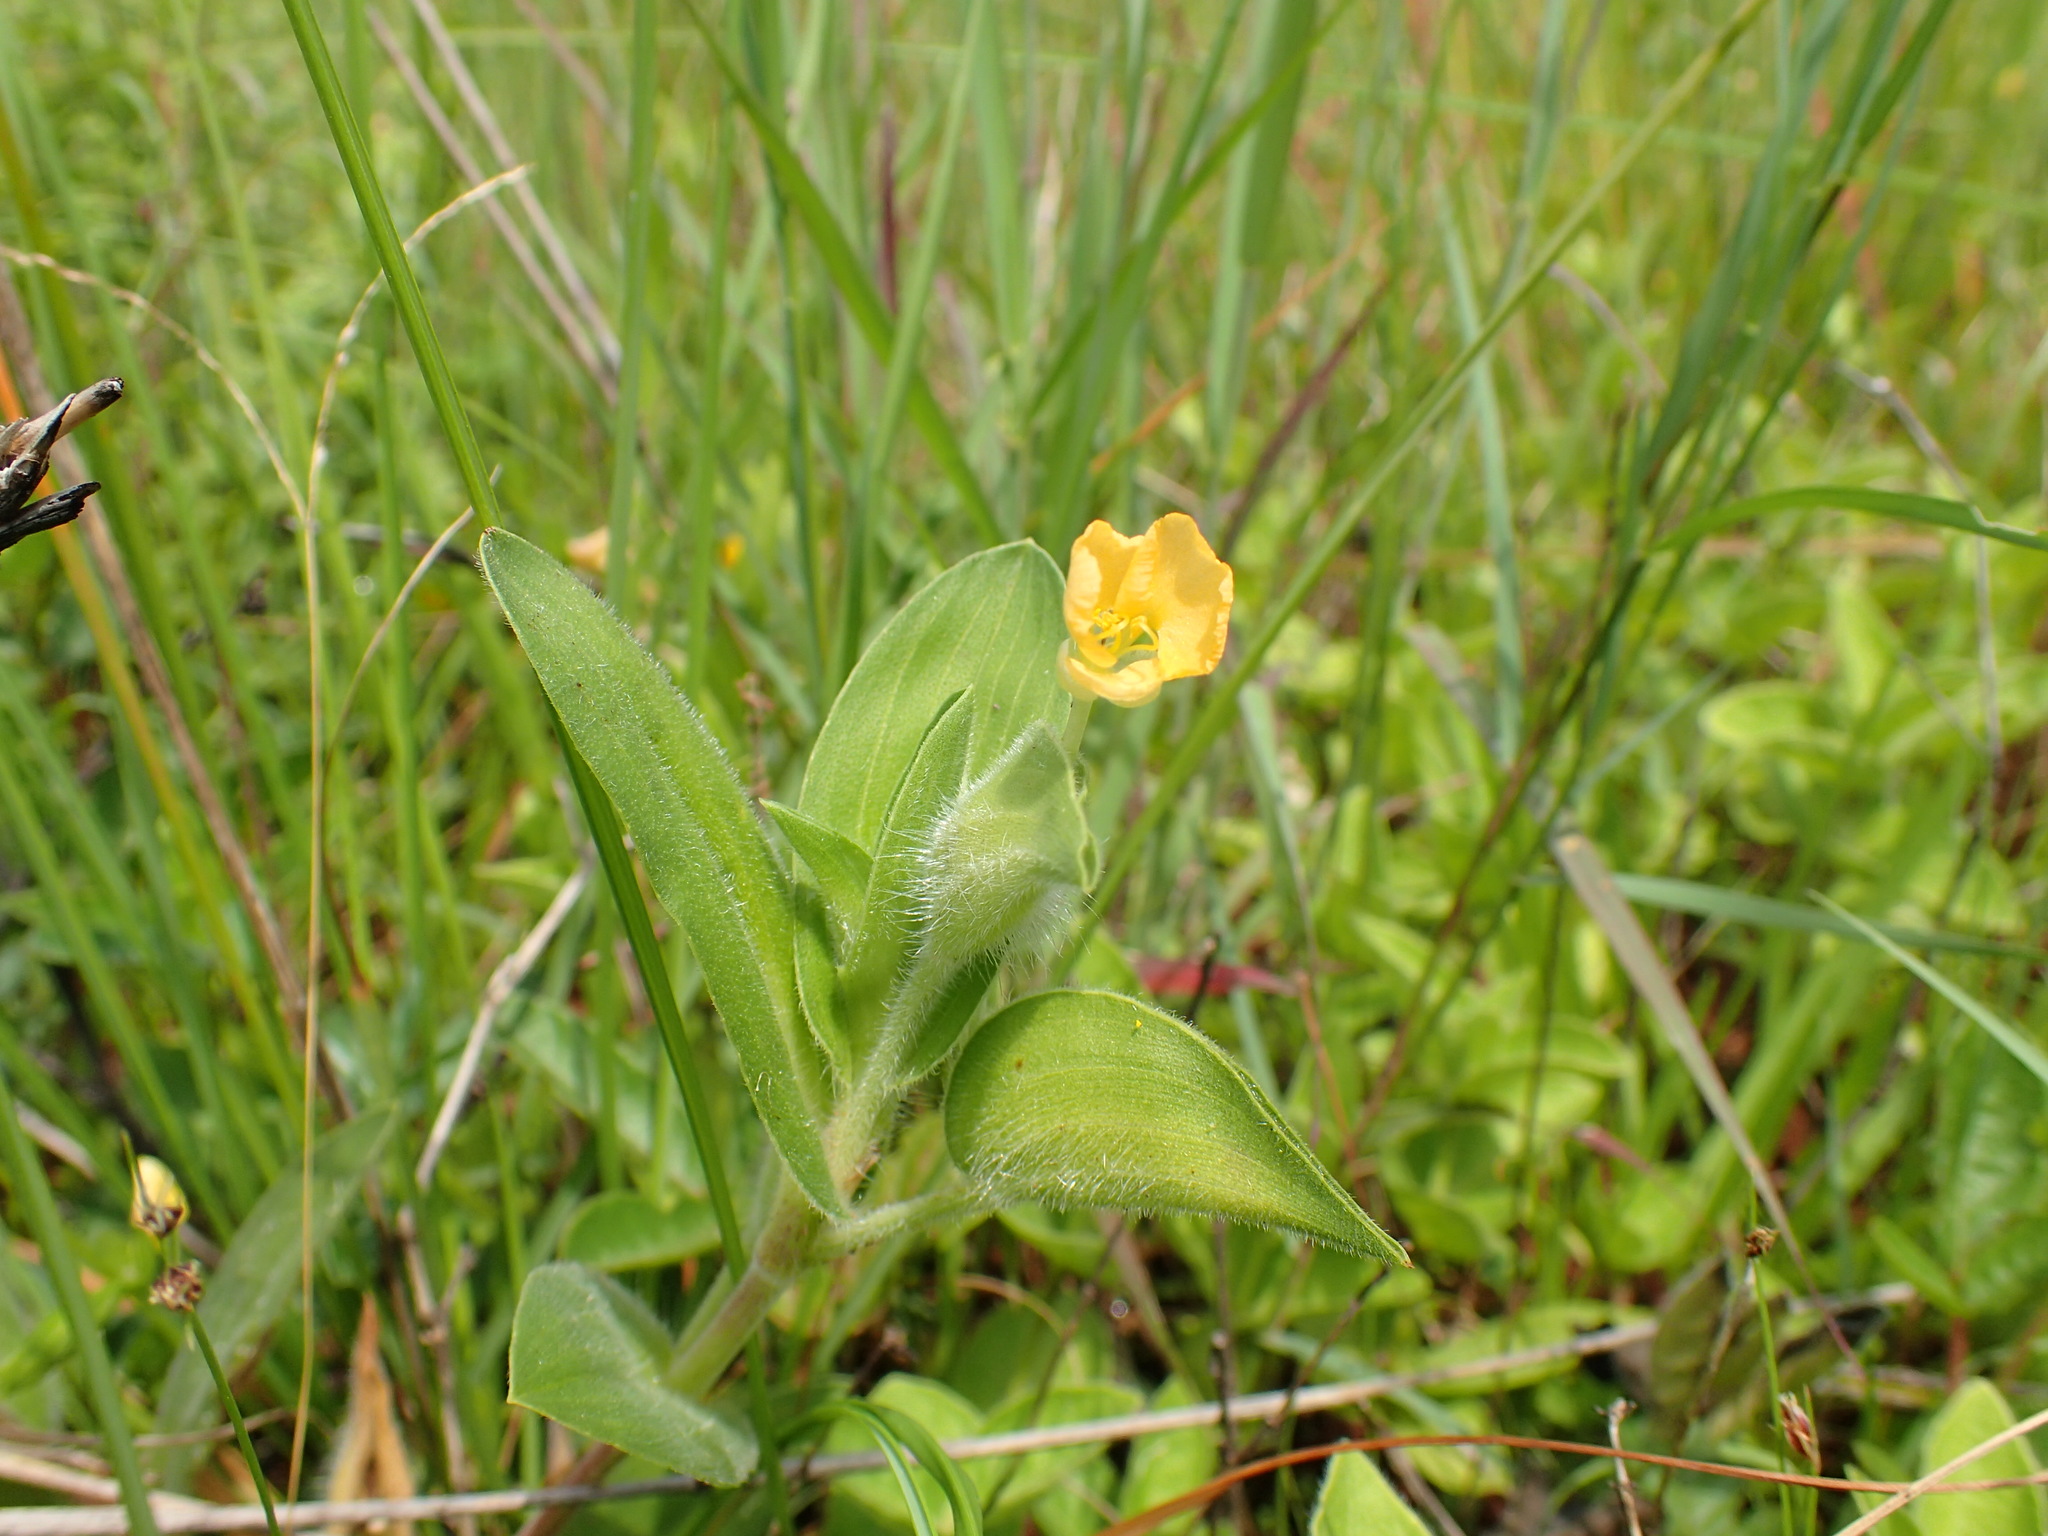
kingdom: Plantae
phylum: Tracheophyta
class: Liliopsida
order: Commelinales
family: Commelinaceae
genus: Commelina
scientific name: Commelina africana
